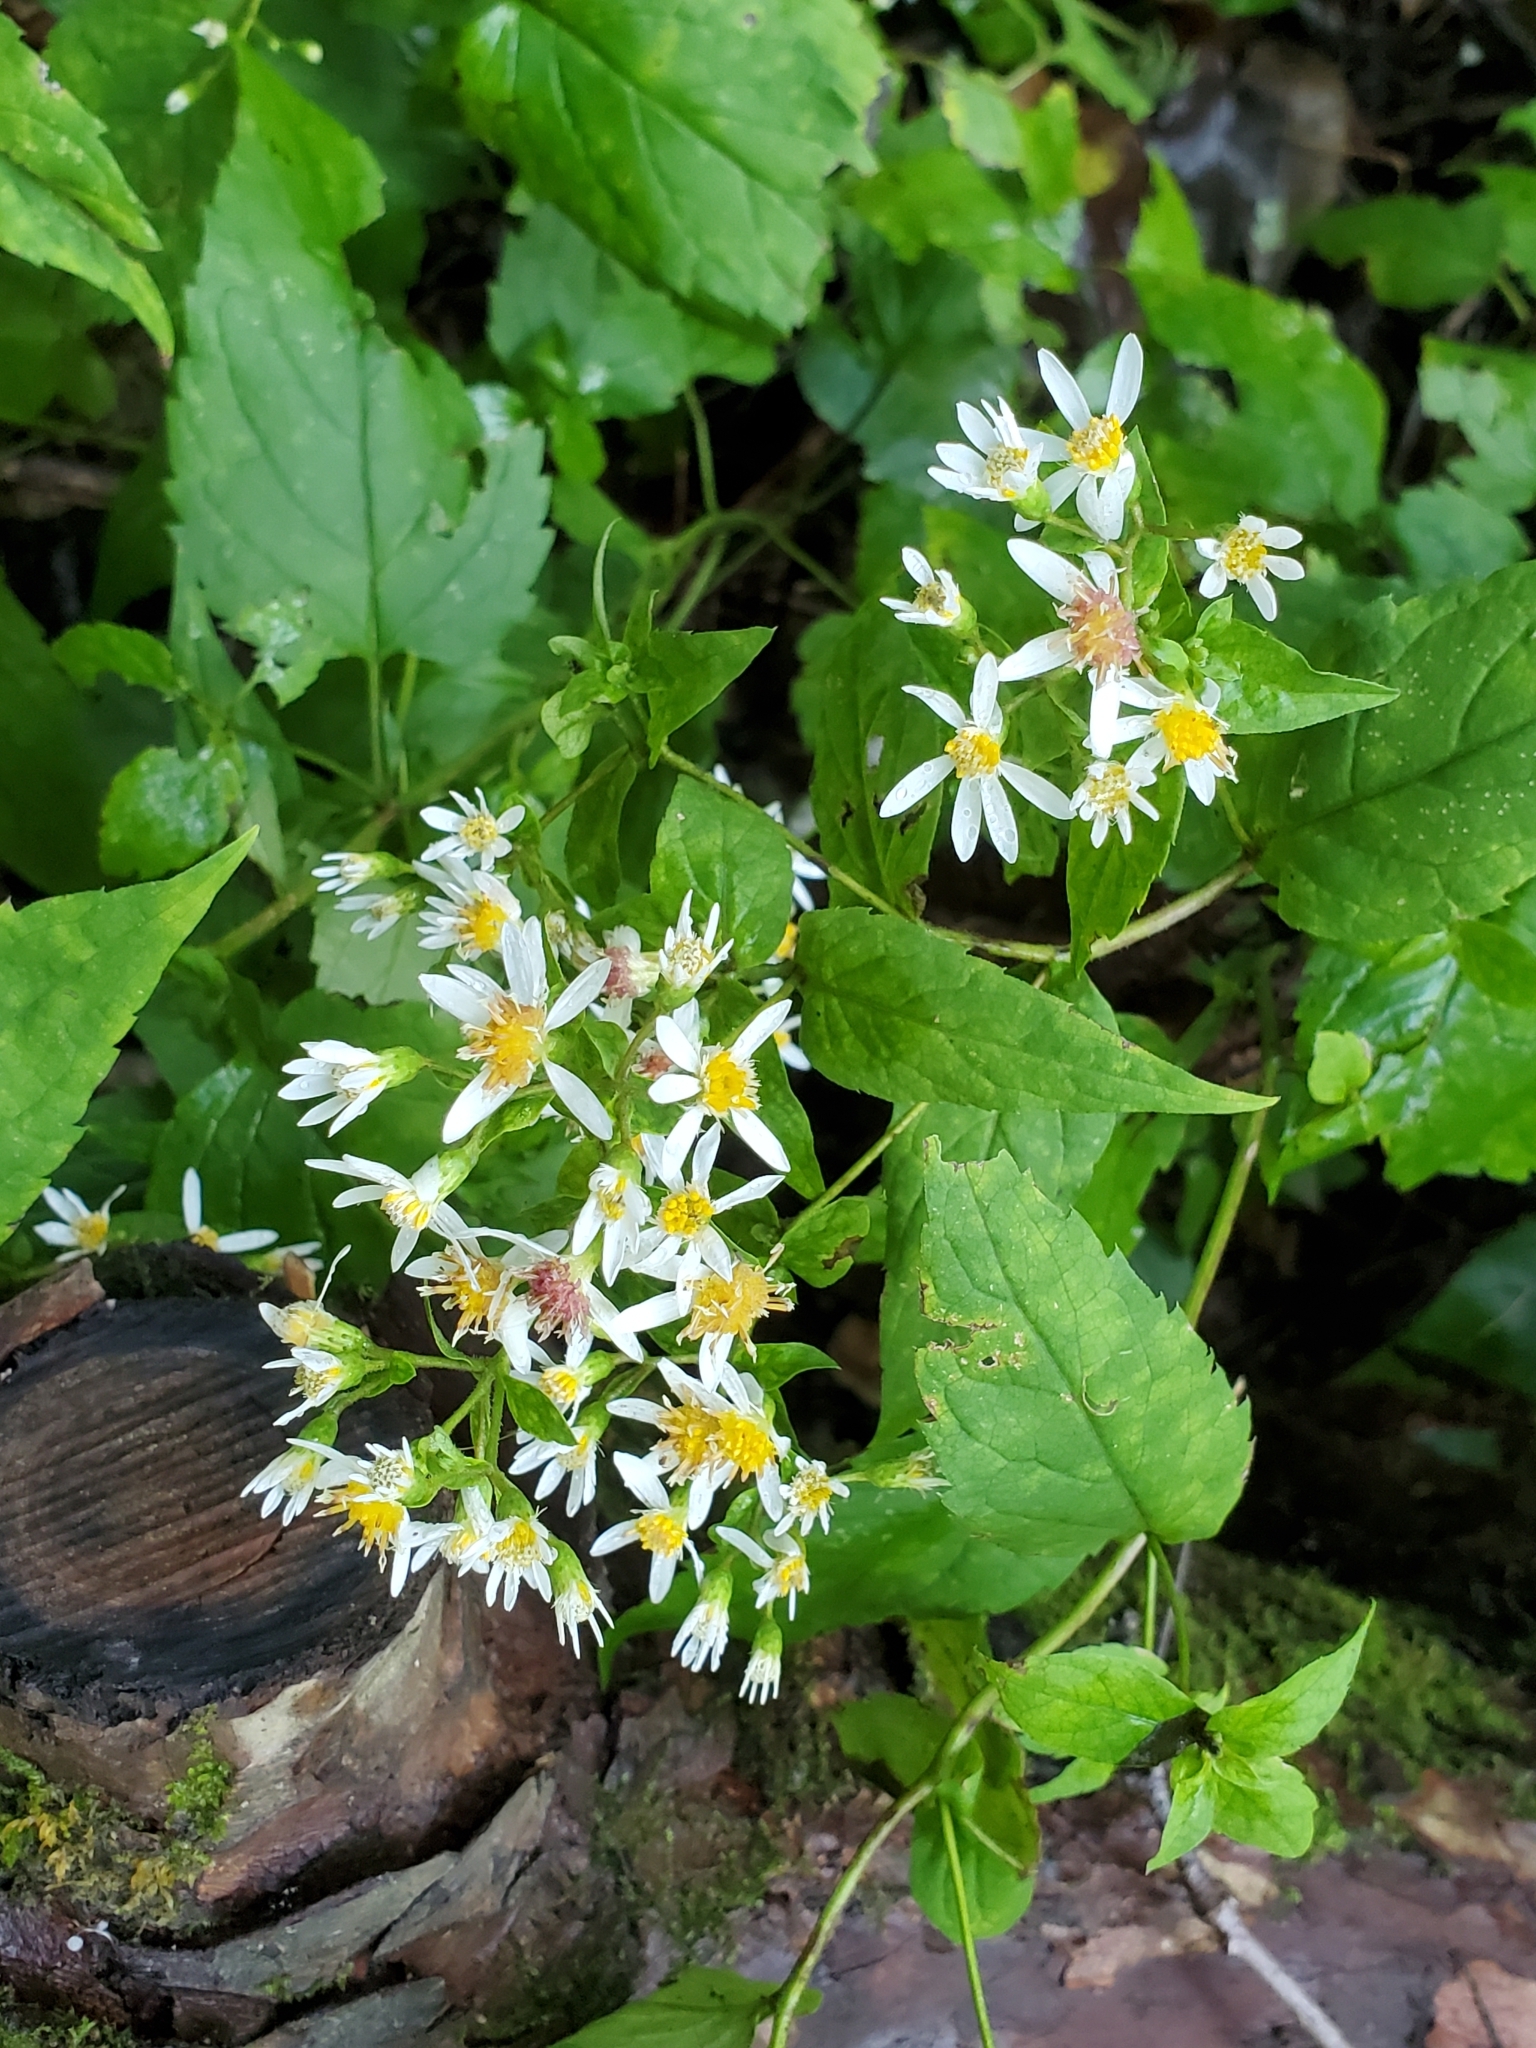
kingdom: Plantae
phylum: Tracheophyta
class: Magnoliopsida
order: Asterales
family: Asteraceae
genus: Eurybia
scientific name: Eurybia divaricata
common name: White wood aster
